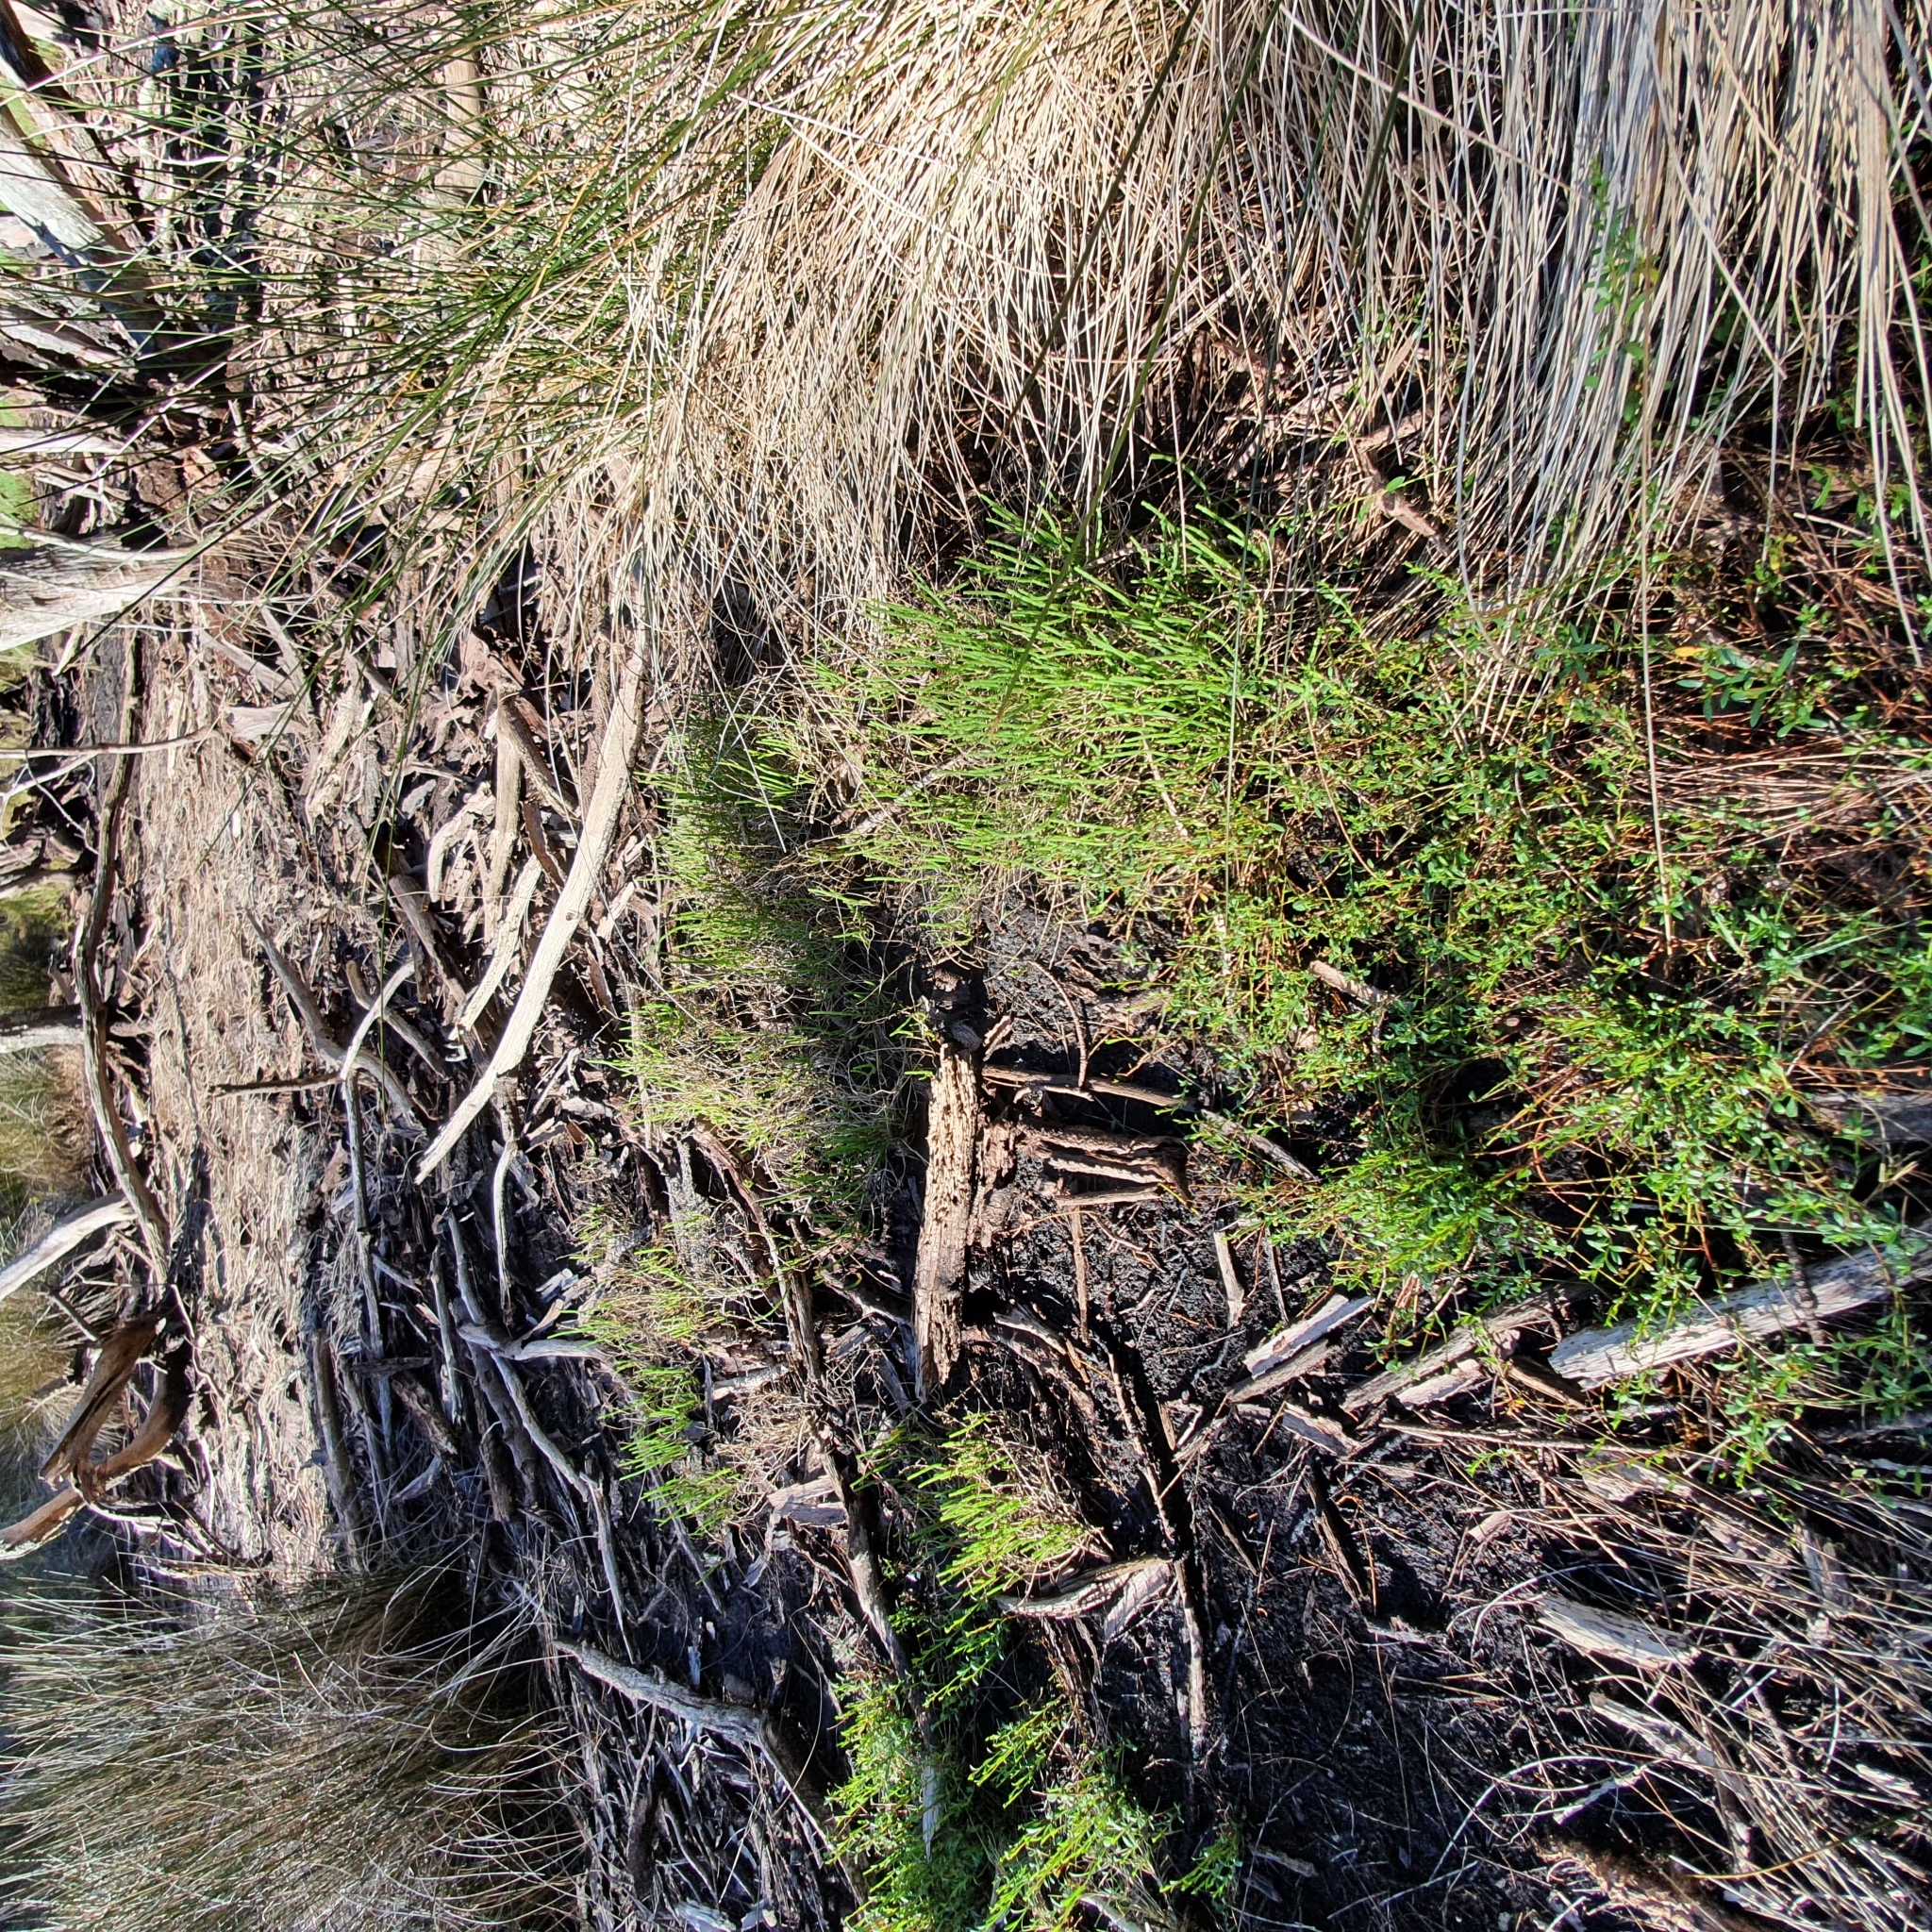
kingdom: Plantae
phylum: Tracheophyta
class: Magnoliopsida
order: Caryophyllales
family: Amaranthaceae
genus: Salicornia
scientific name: Salicornia quinqueflora
